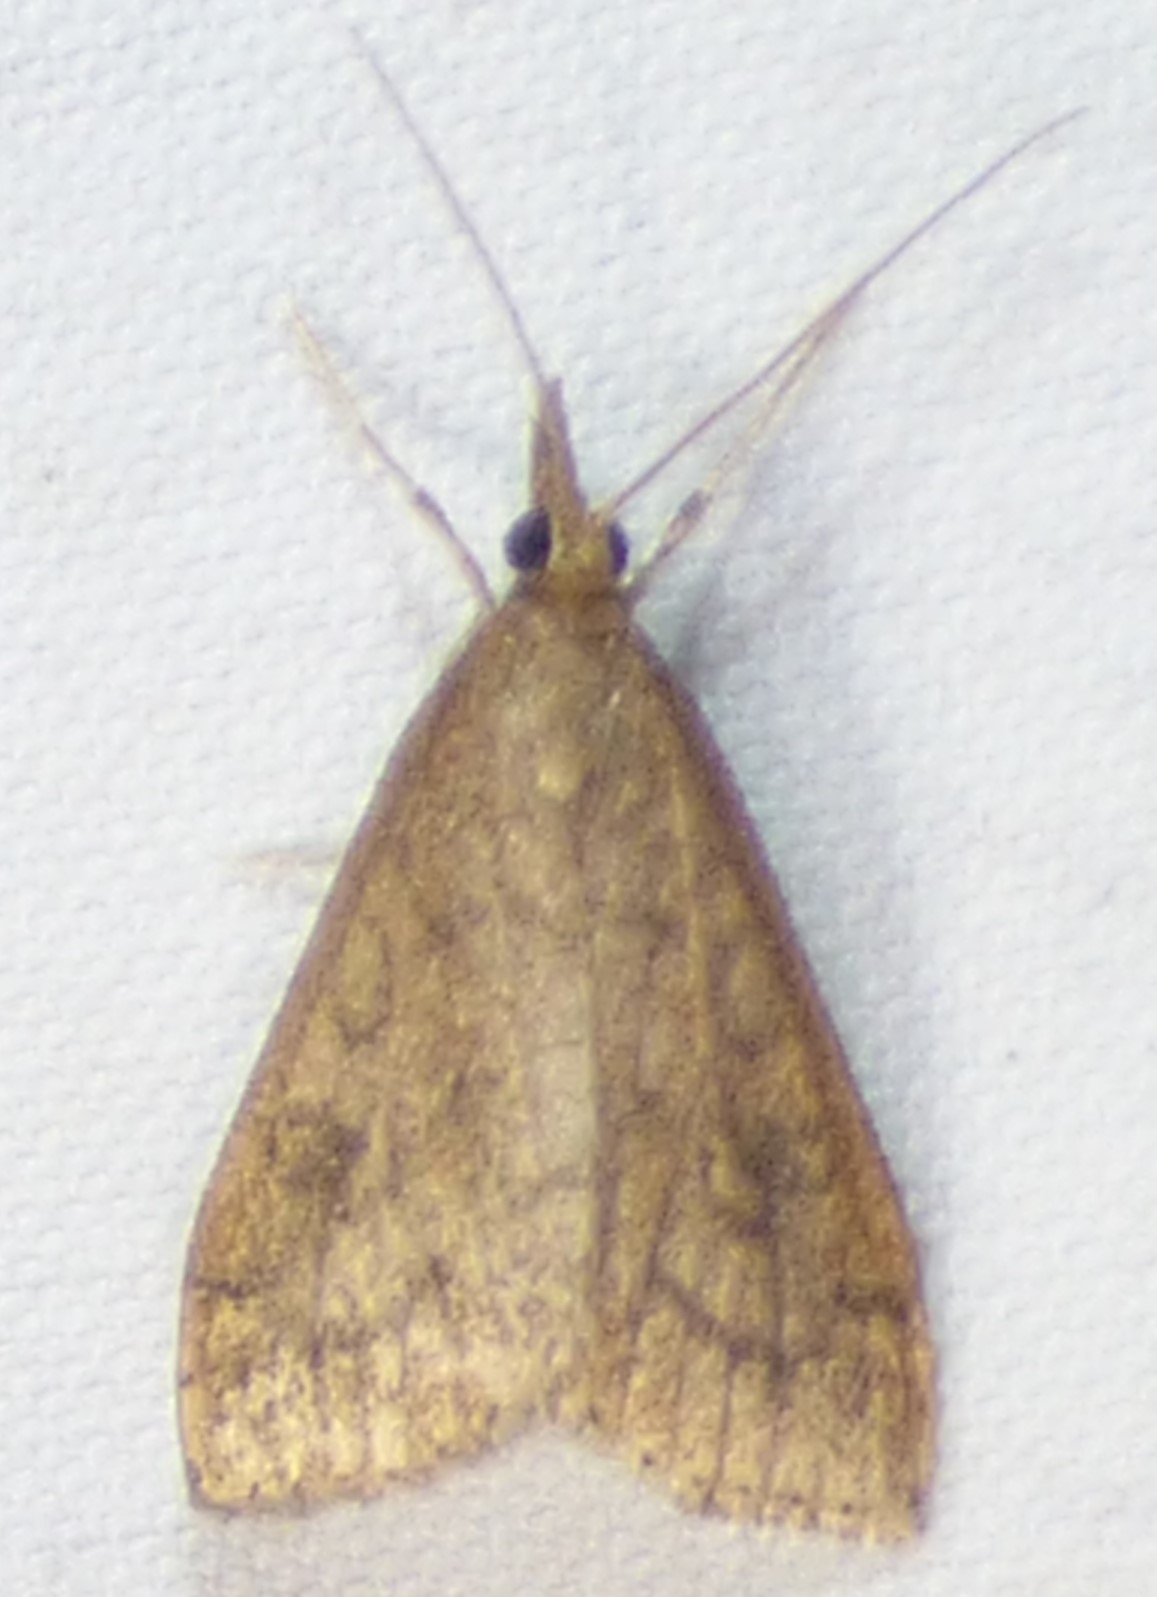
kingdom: Animalia
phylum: Arthropoda
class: Insecta
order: Lepidoptera
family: Crambidae
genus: Udea
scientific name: Udea rubigalis
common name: Celery leaftier moth
